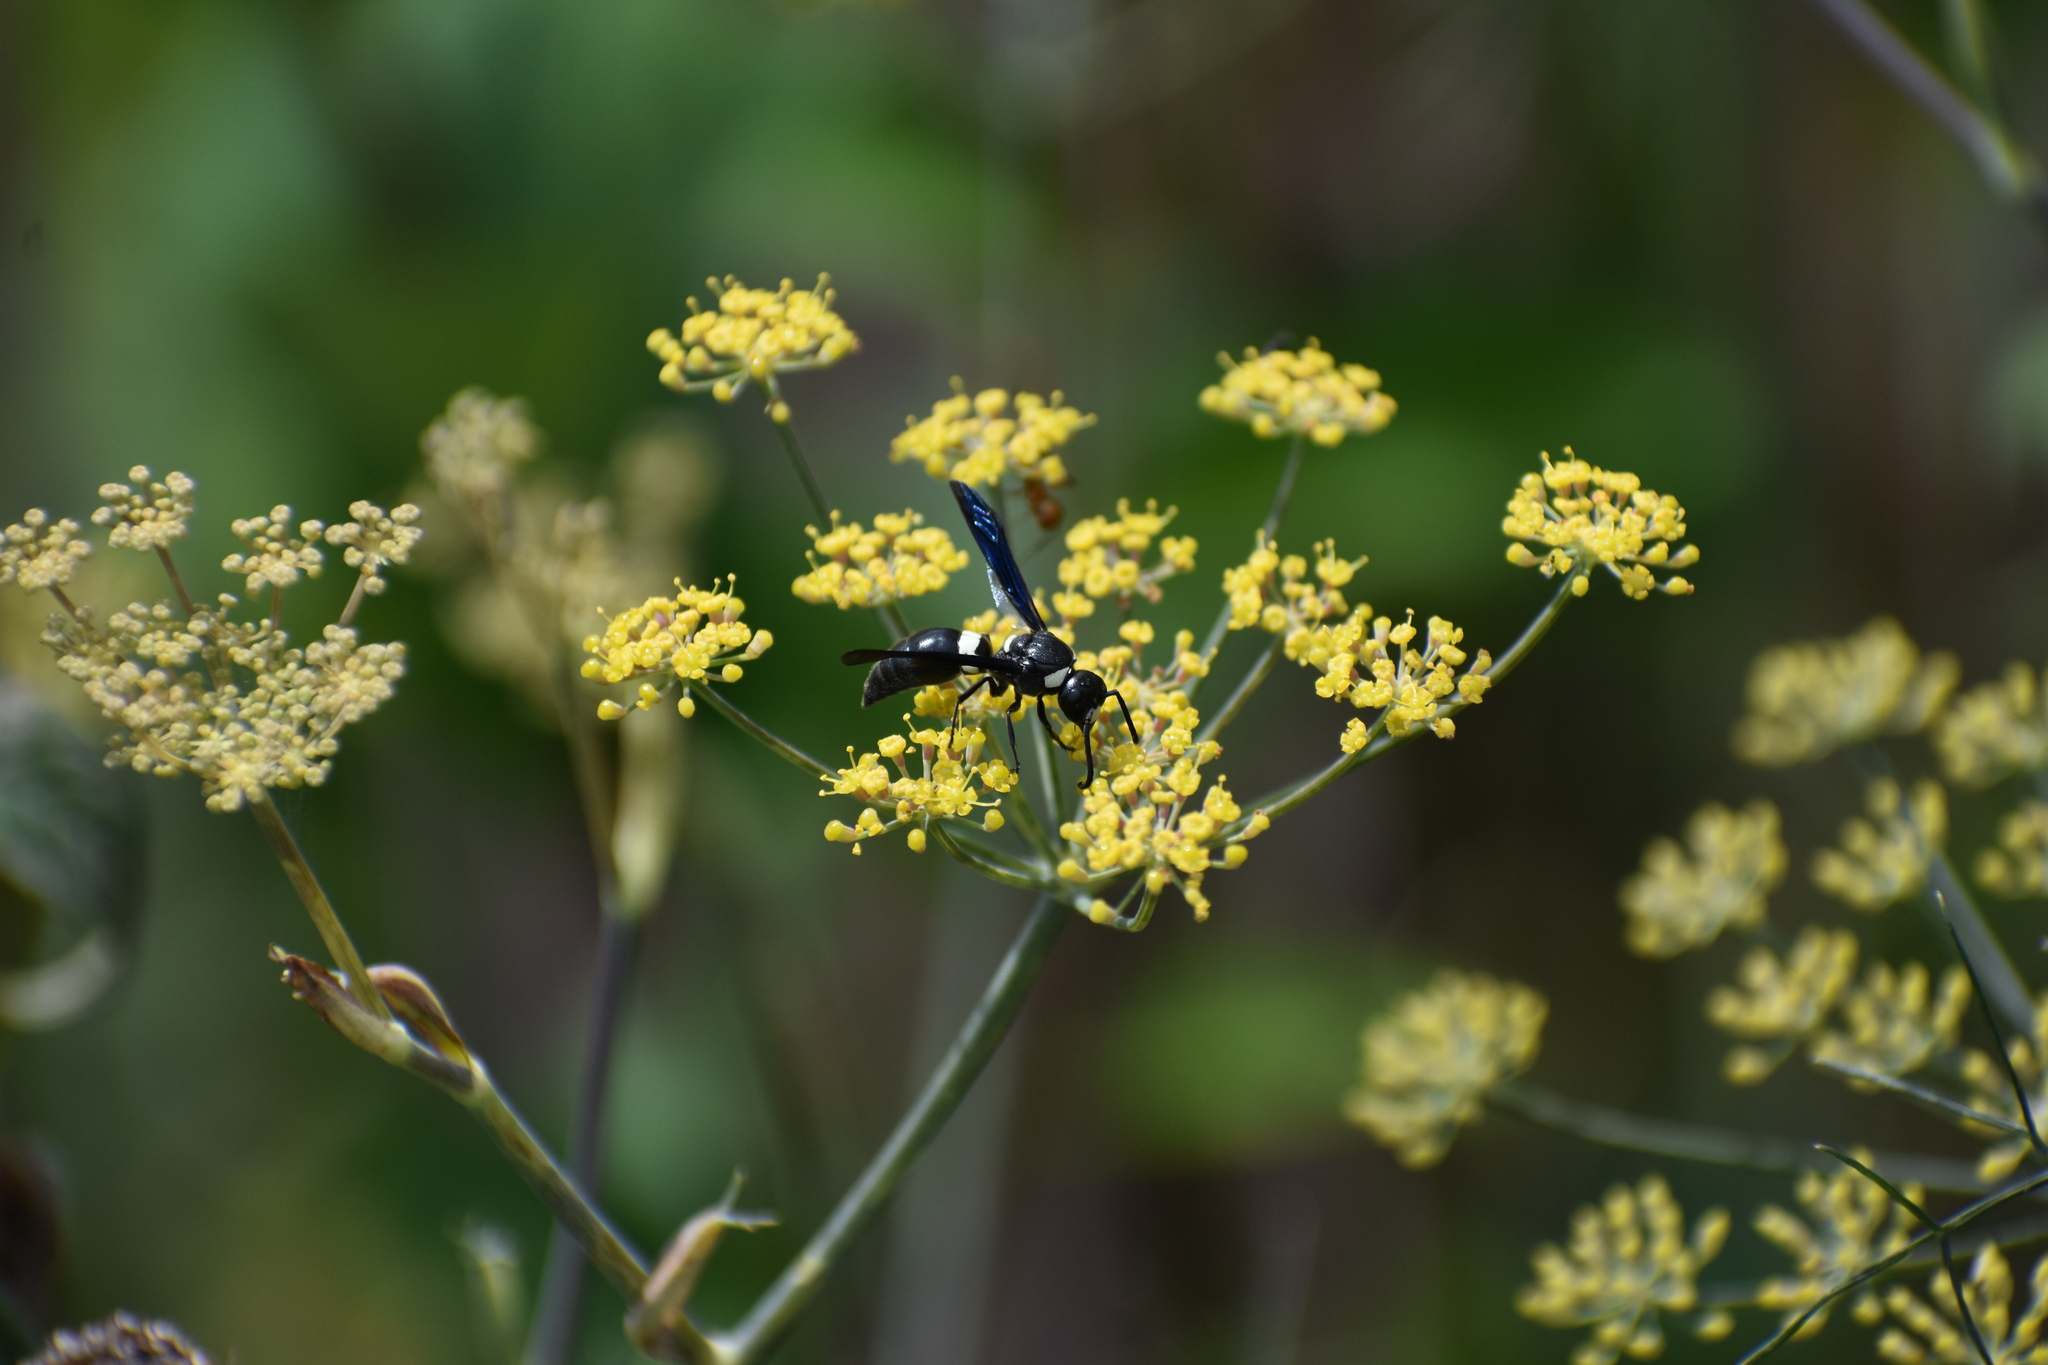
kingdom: Animalia
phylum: Arthropoda
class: Insecta
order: Hymenoptera
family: Eumenidae
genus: Monobia
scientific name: Monobia quadridens
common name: Four-toothed mason wasp
